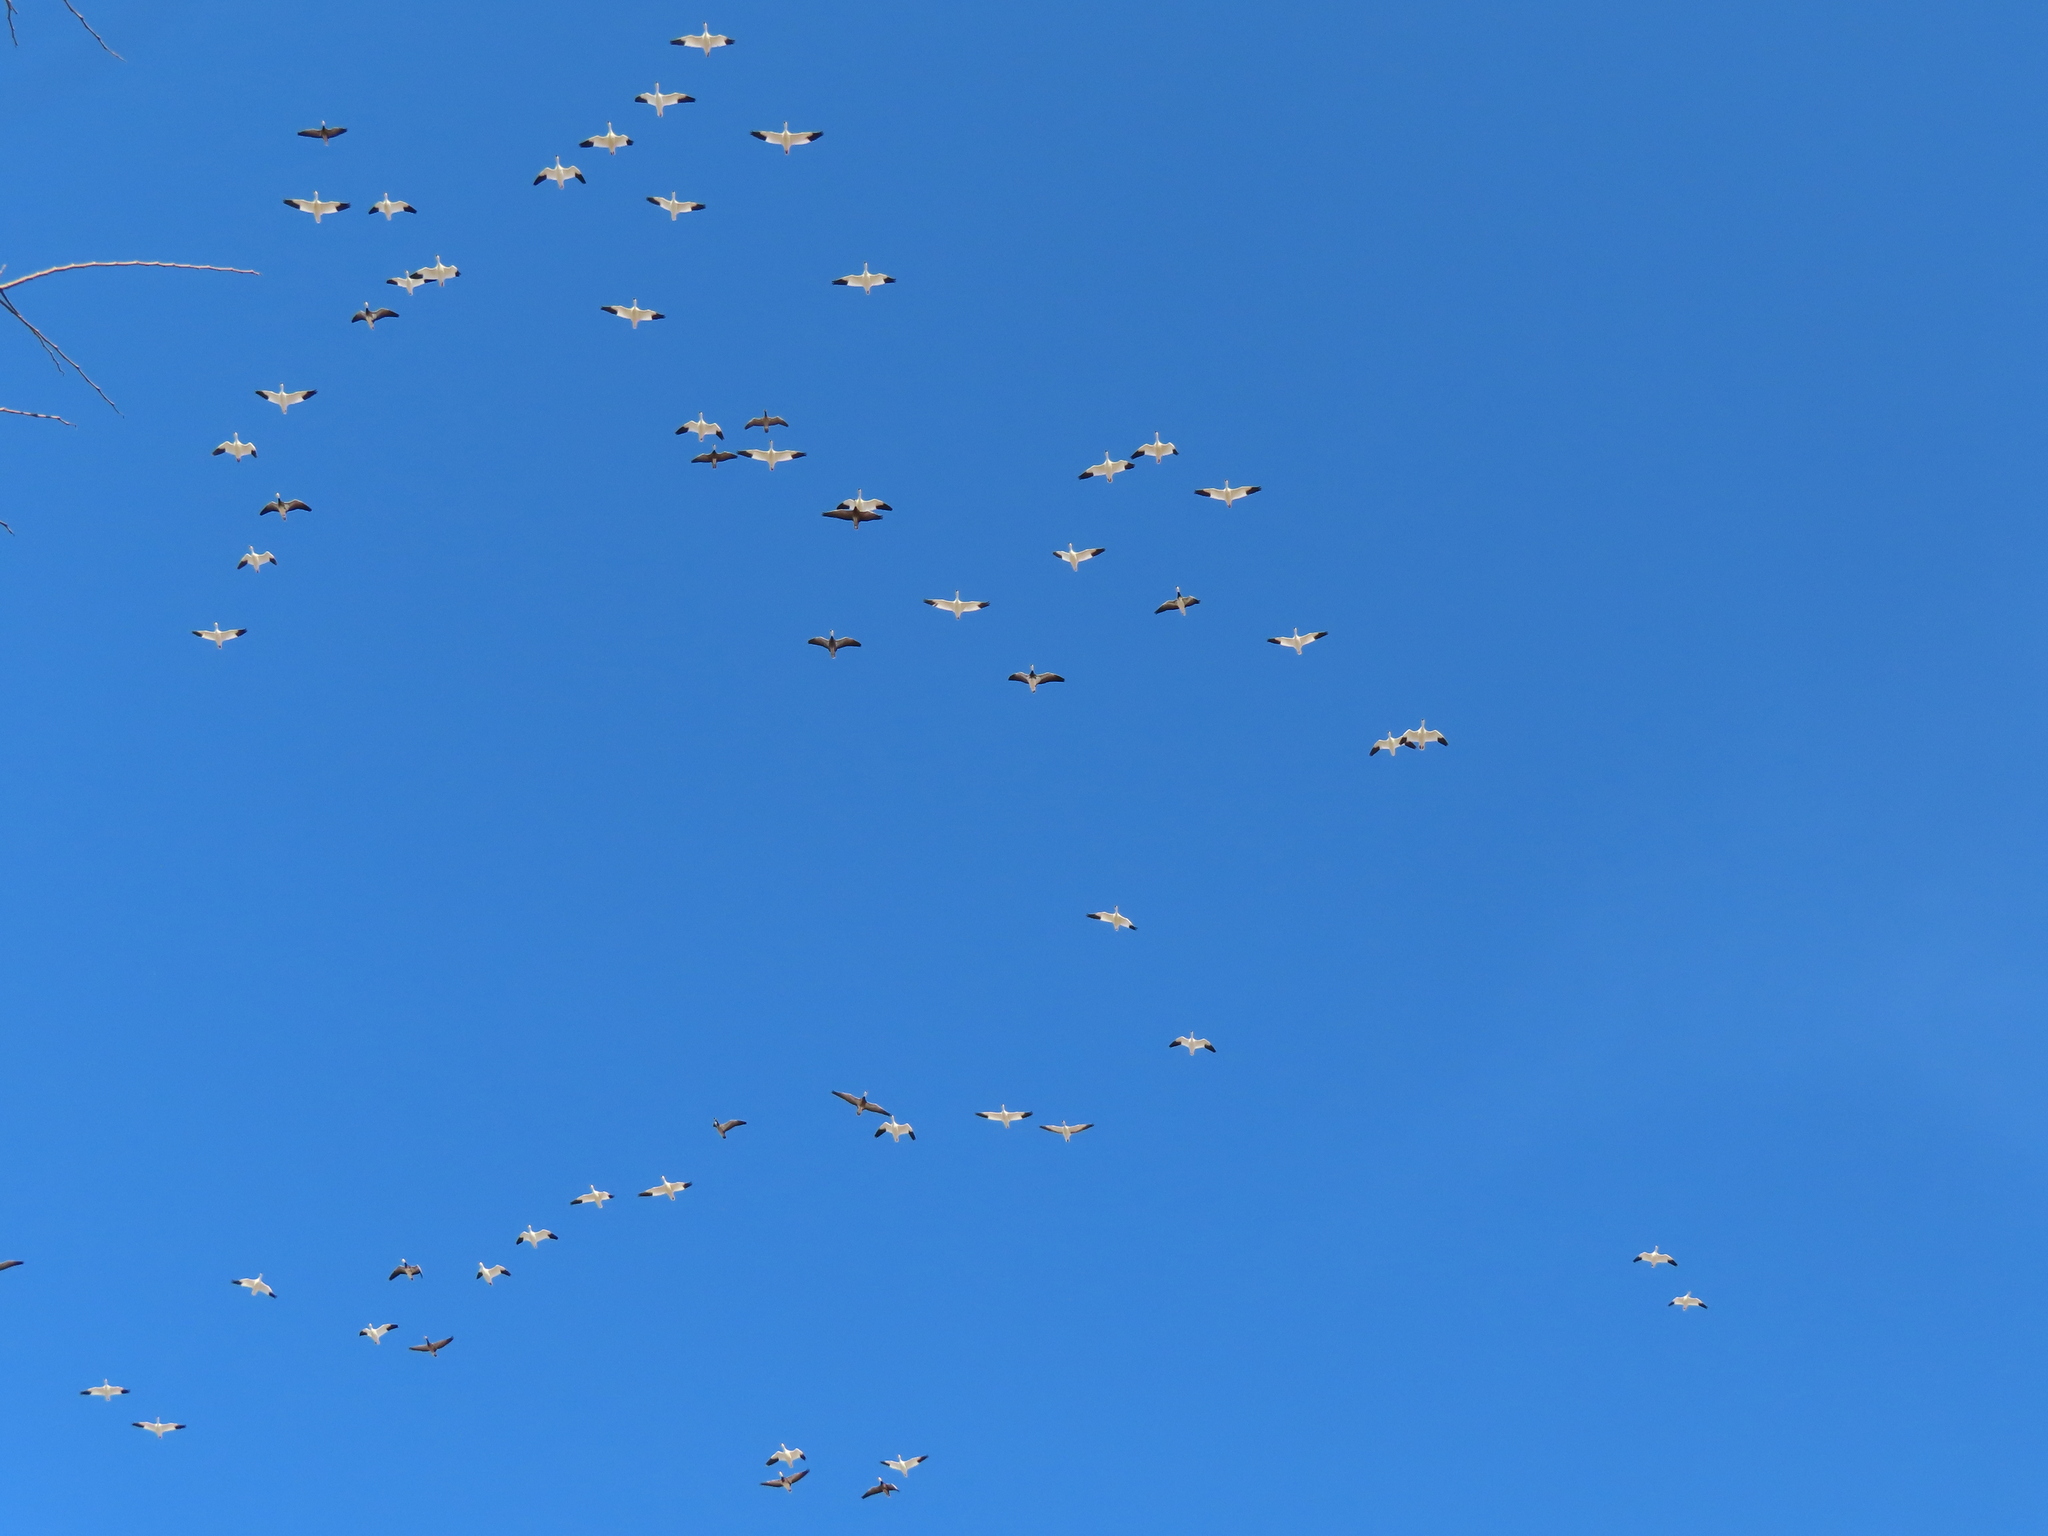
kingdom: Animalia
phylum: Chordata
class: Aves
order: Anseriformes
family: Anatidae
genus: Anser
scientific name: Anser caerulescens
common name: Snow goose
